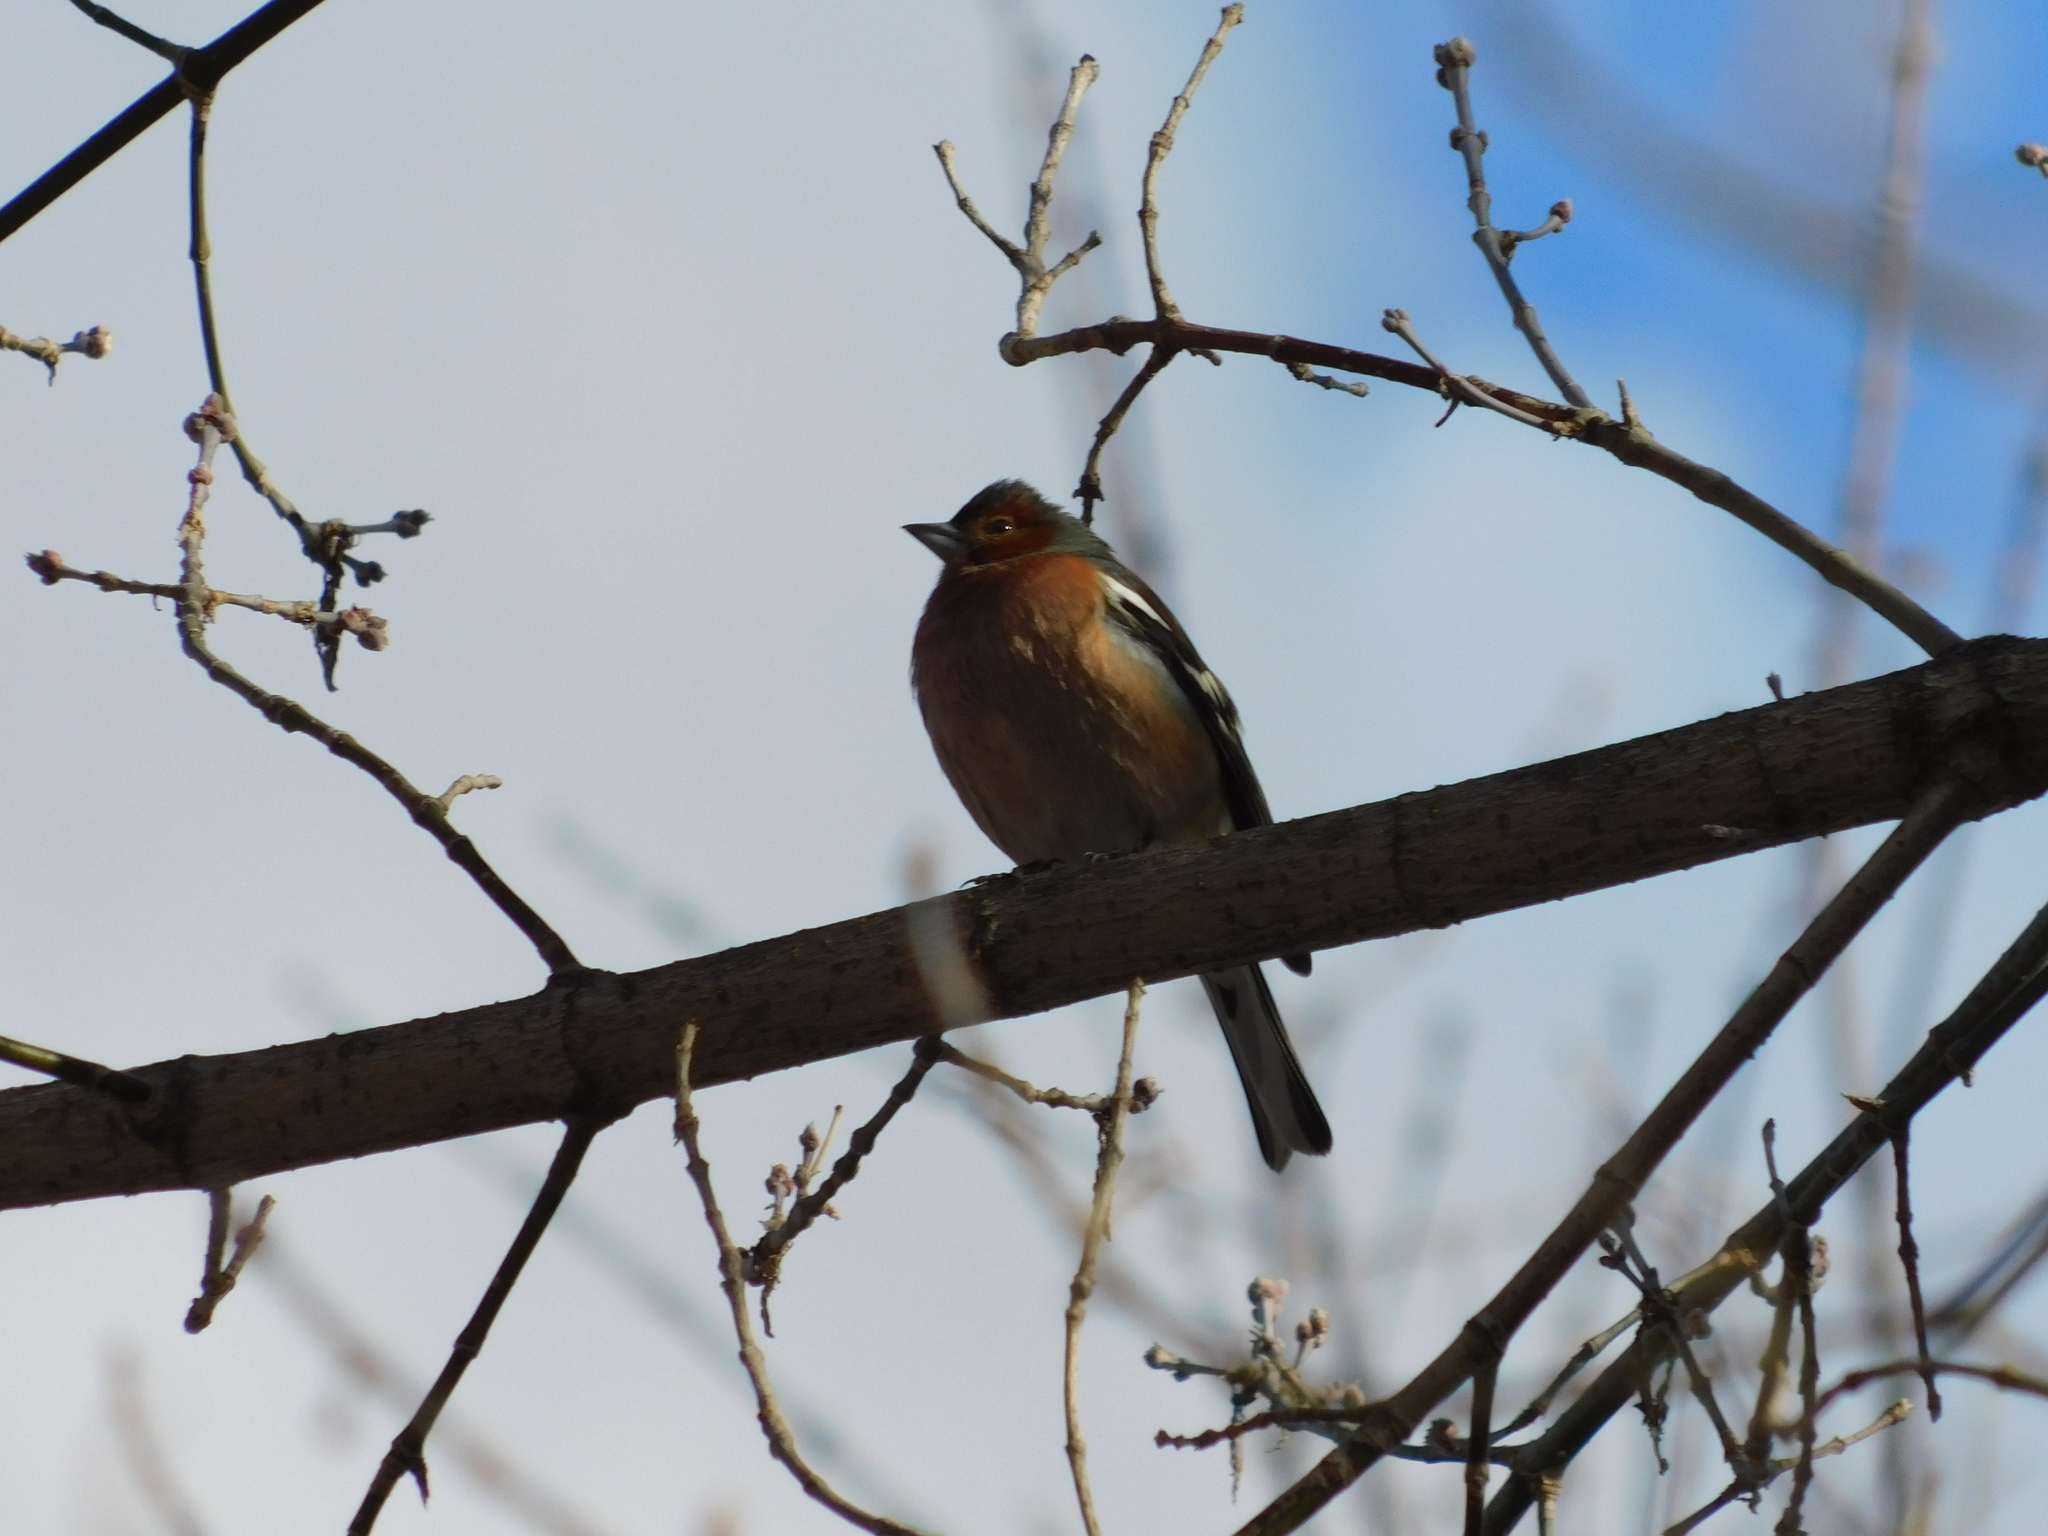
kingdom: Animalia
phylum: Chordata
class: Aves
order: Passeriformes
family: Fringillidae
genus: Fringilla
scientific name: Fringilla coelebs
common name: Common chaffinch
